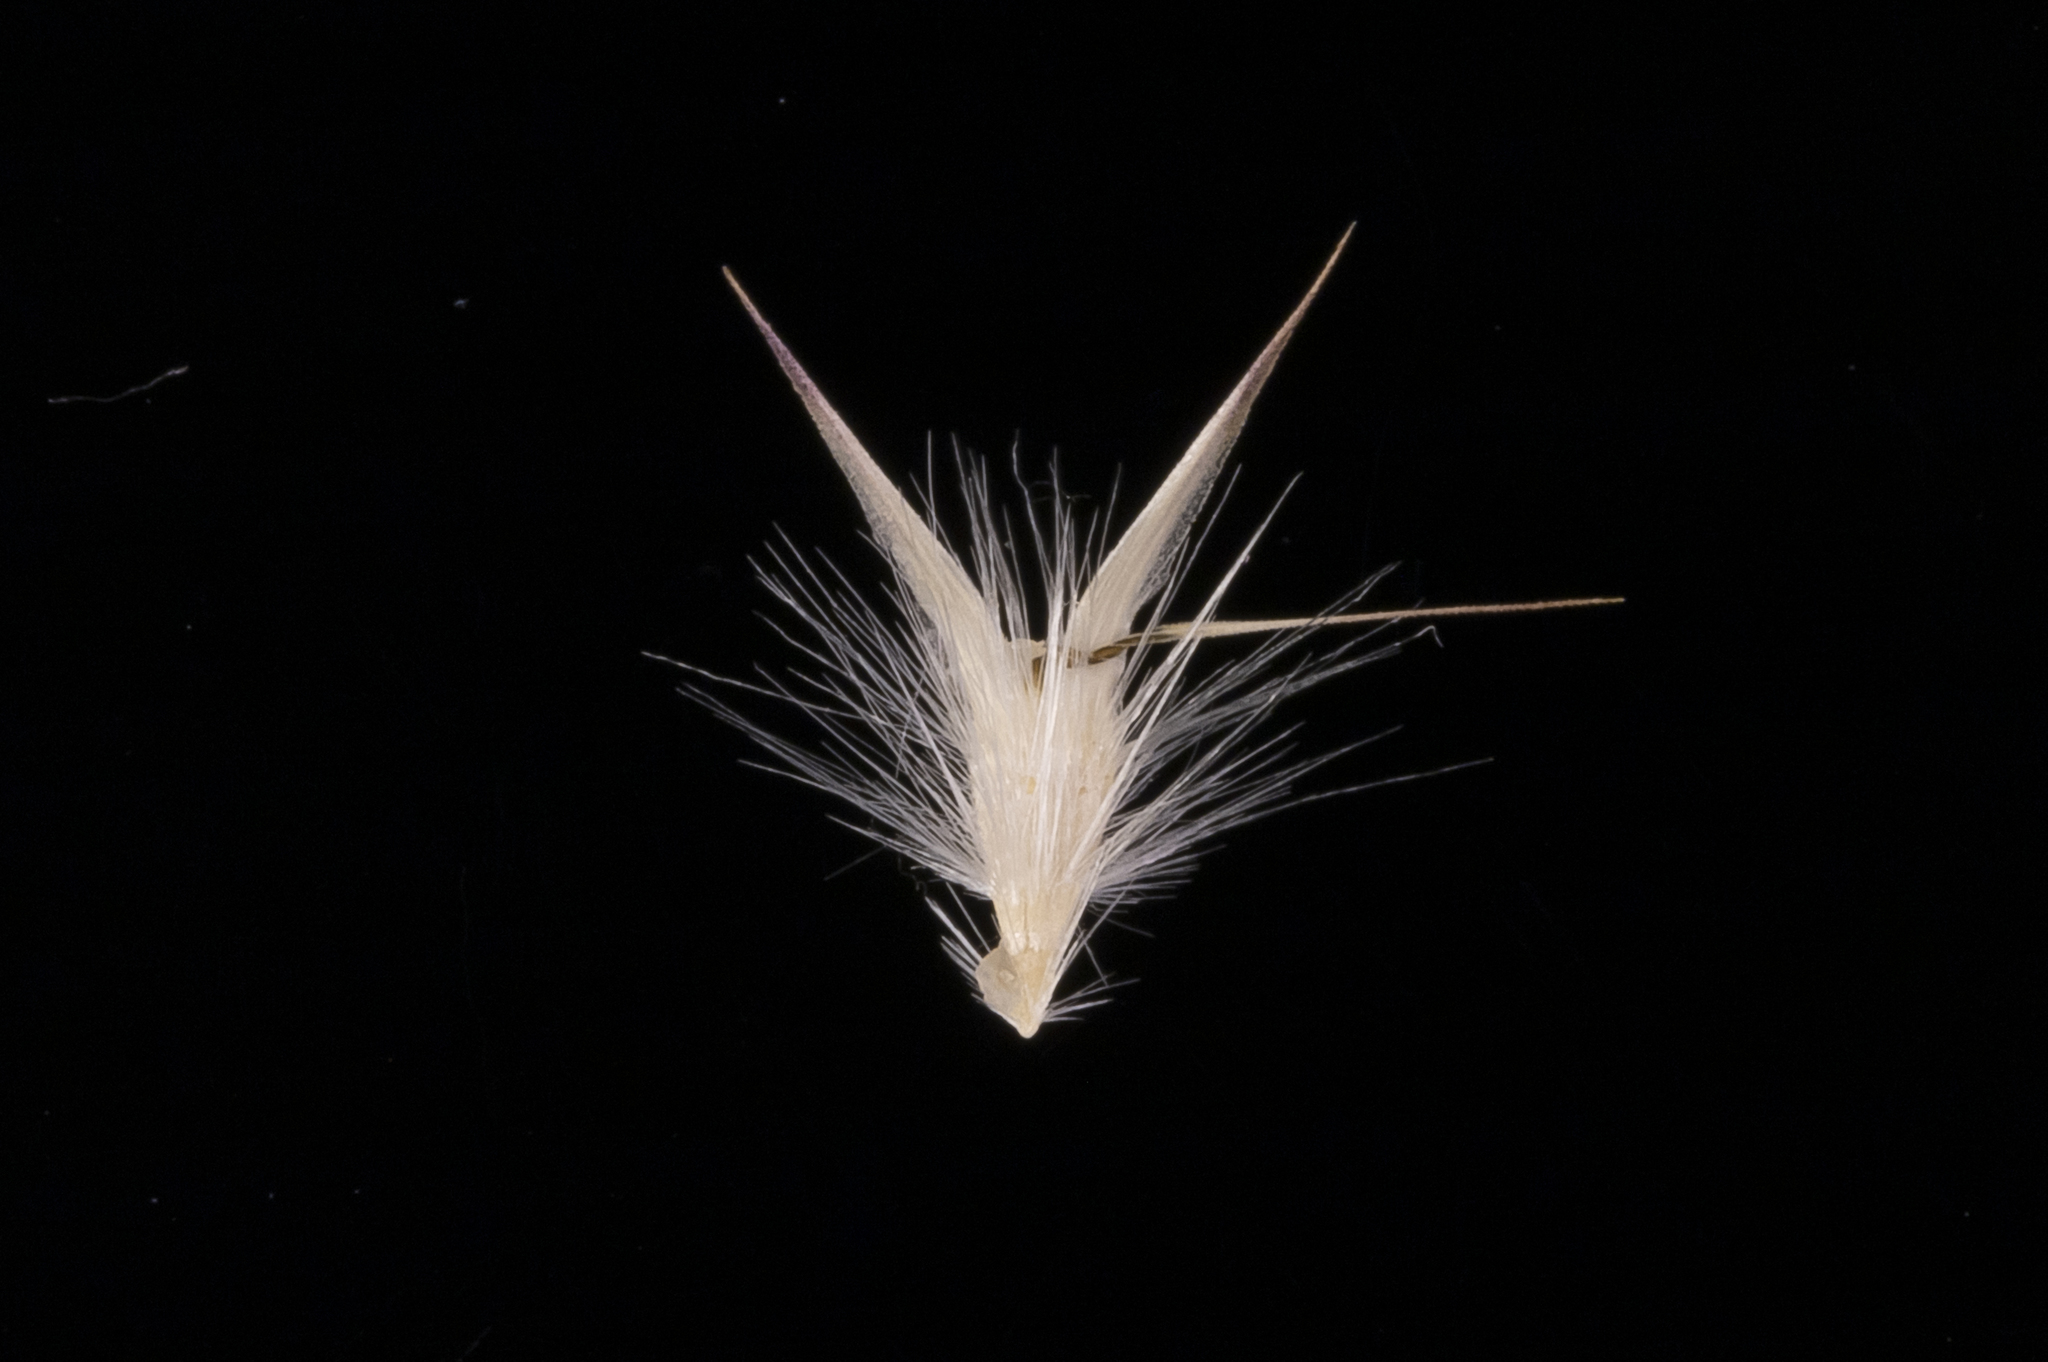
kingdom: Plantae
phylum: Tracheophyta
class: Liliopsida
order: Poales
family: Poaceae
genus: Rytidosperma
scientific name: Rytidosperma geniculatum
